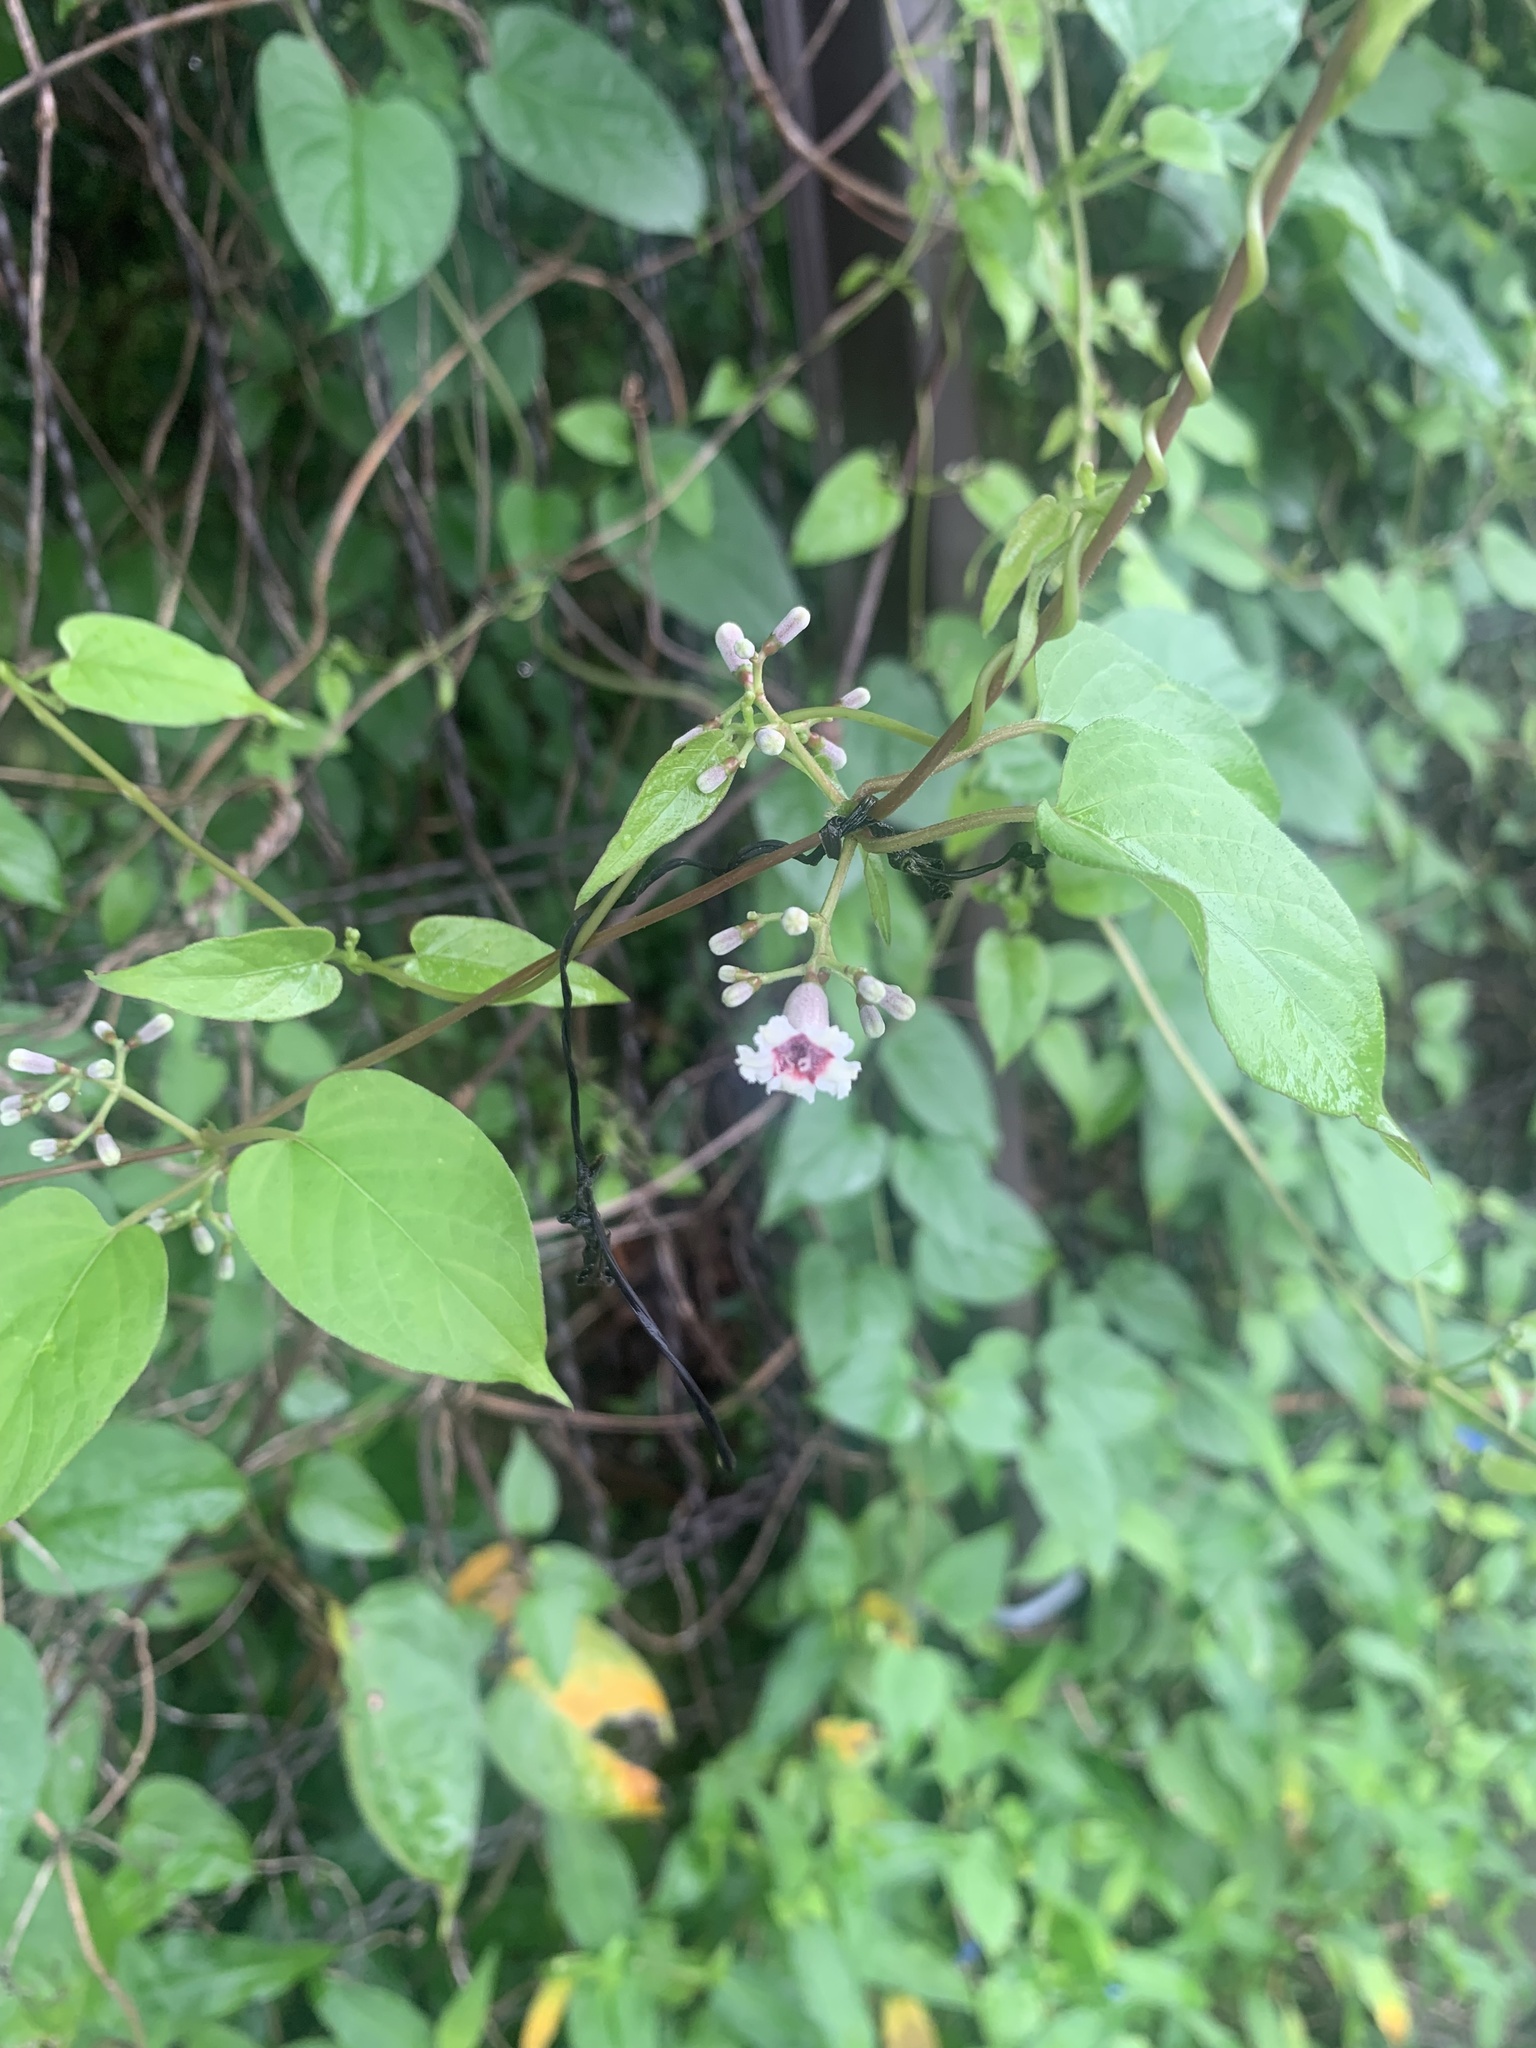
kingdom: Plantae
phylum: Tracheophyta
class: Magnoliopsida
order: Gentianales
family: Rubiaceae
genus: Paederia
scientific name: Paederia foetida
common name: Stinkvine
